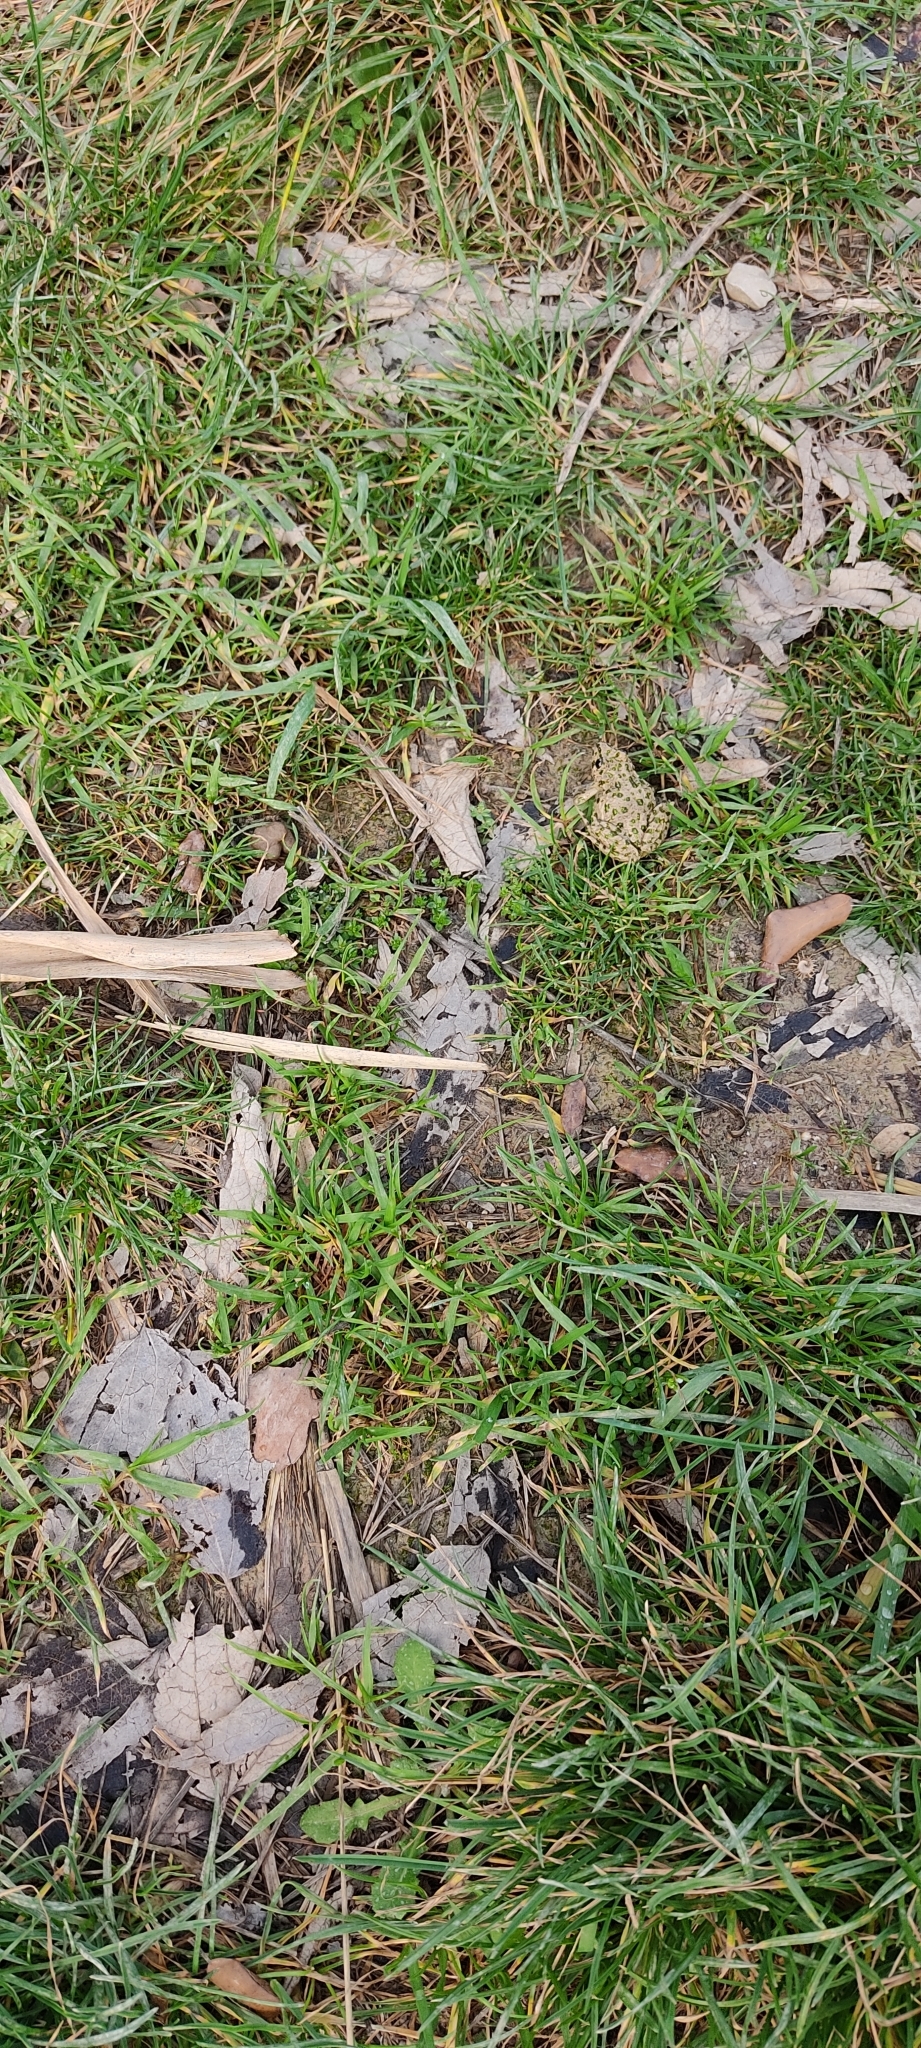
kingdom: Animalia
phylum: Chordata
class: Amphibia
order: Anura
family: Pelodytidae
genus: Pelodytes
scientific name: Pelodytes punctatus
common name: Parsley frog
